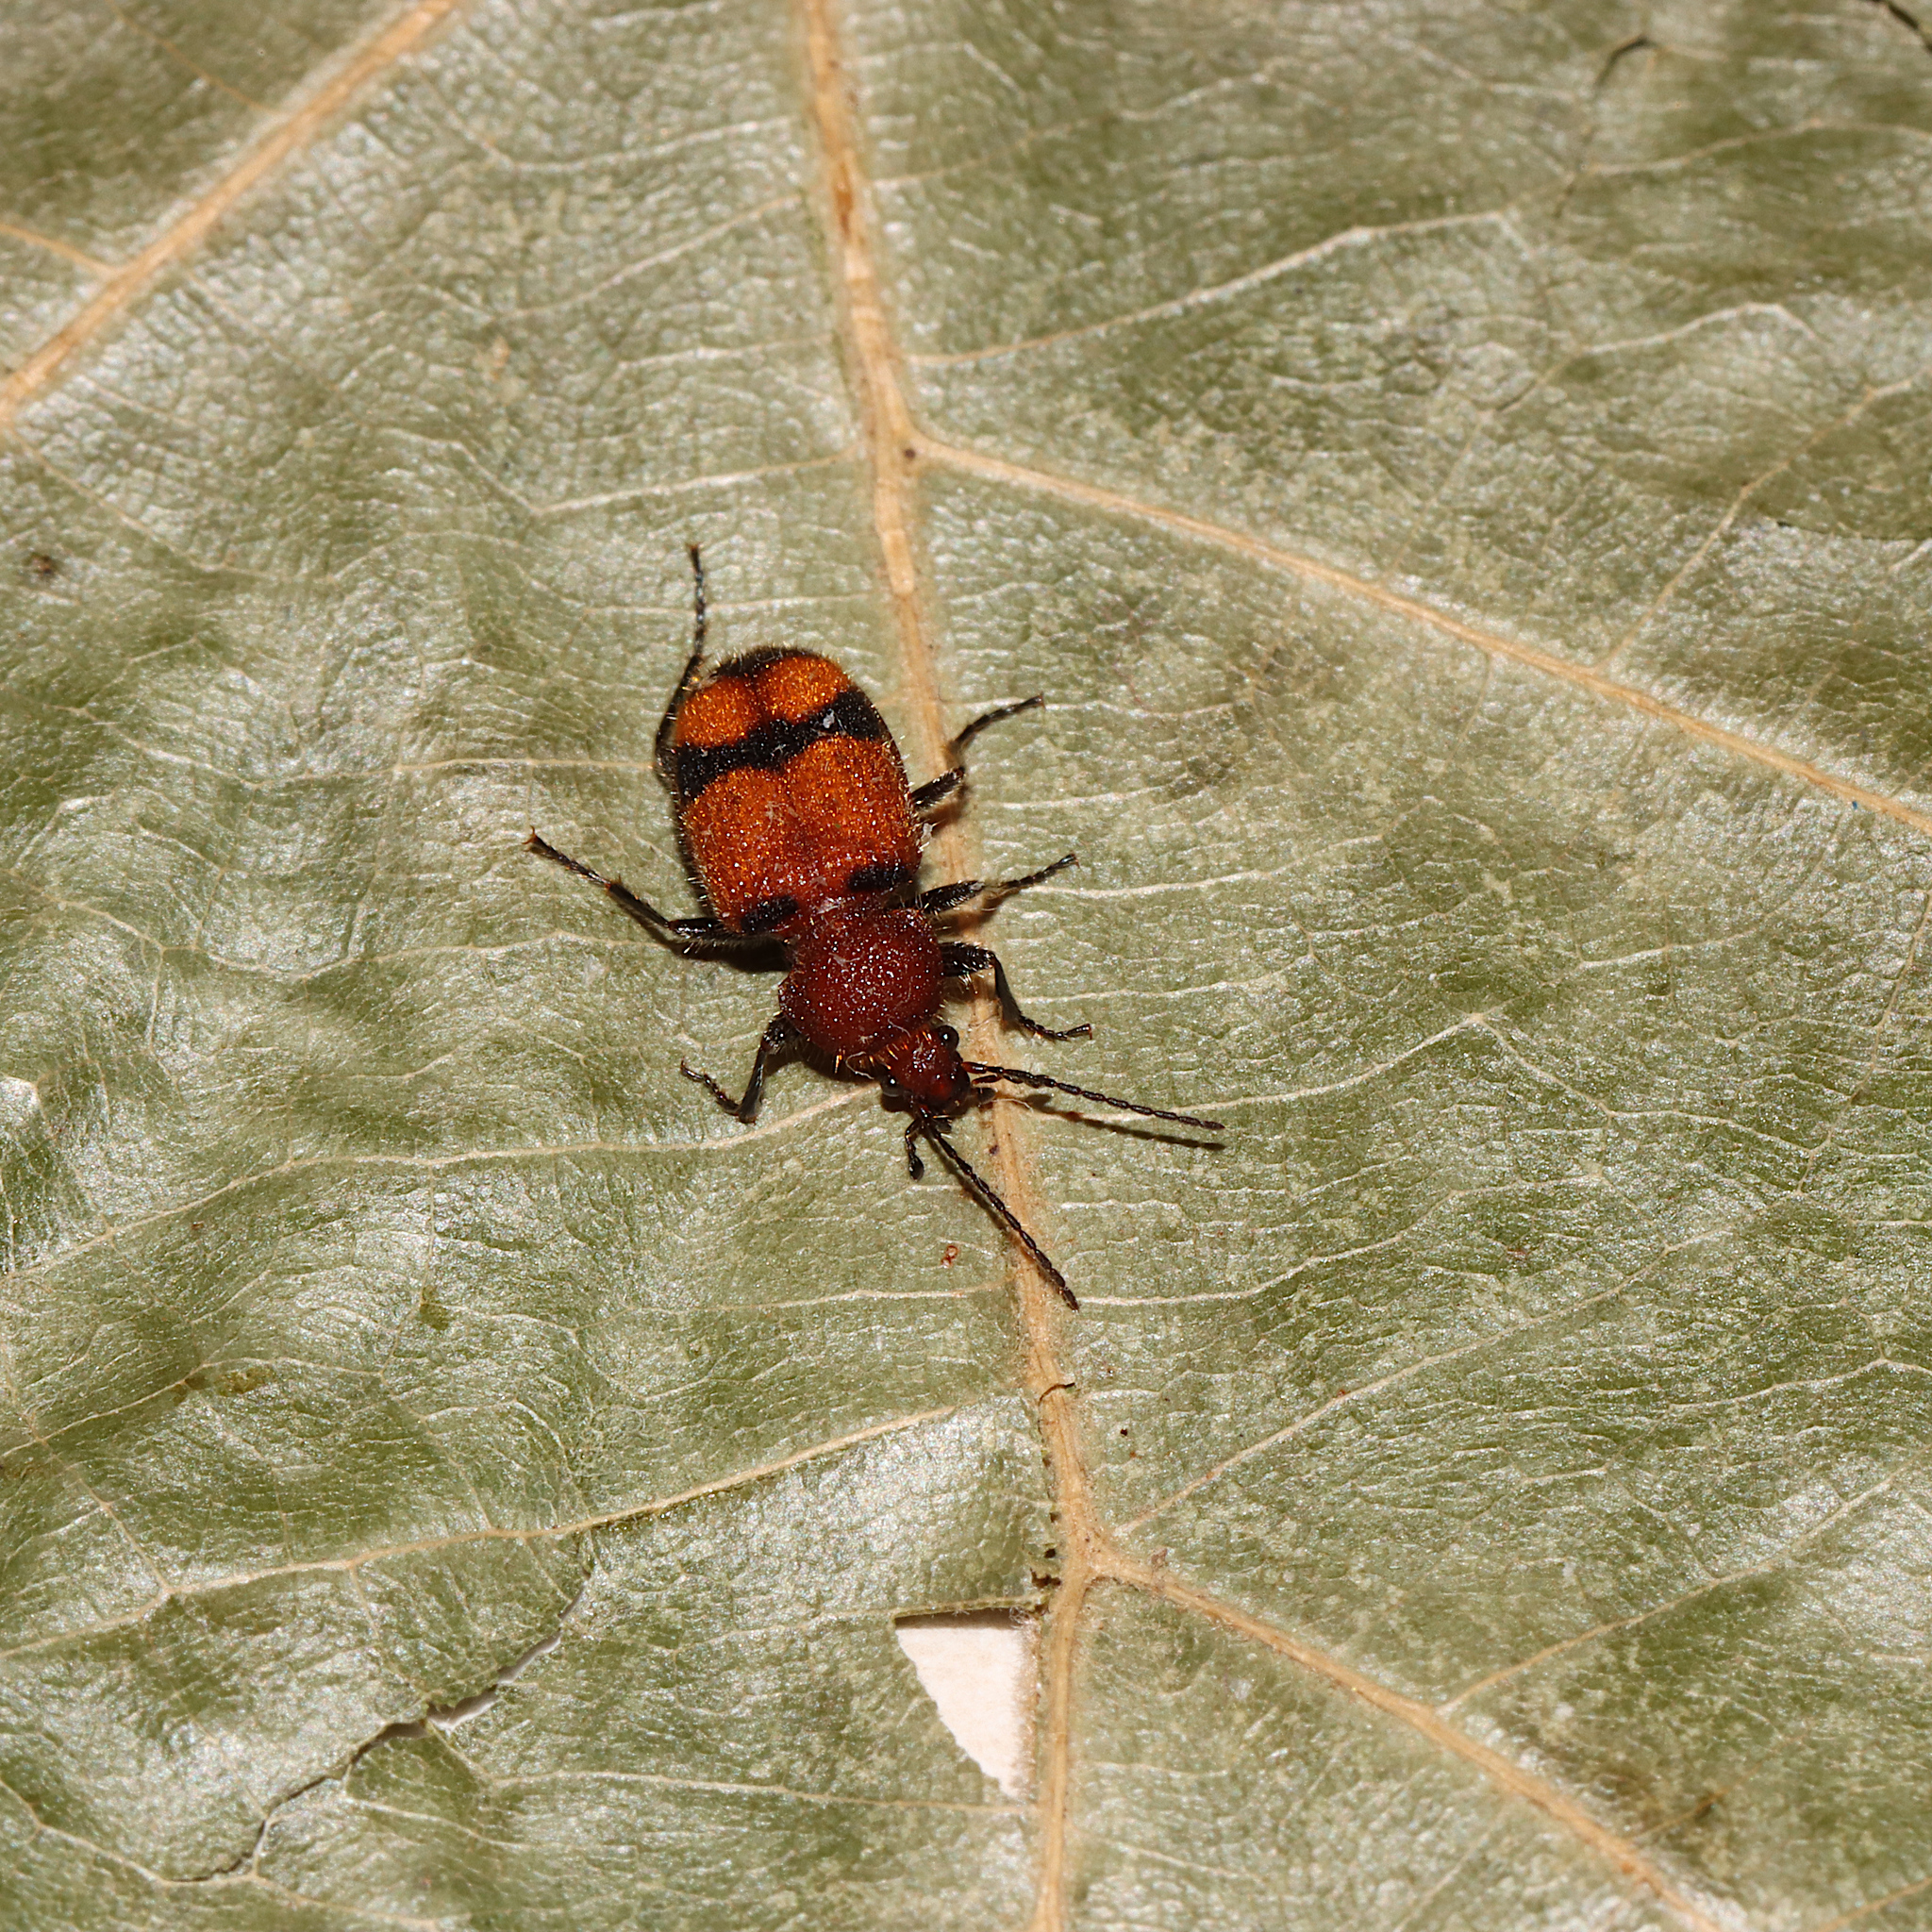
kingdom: Animalia
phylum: Arthropoda
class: Insecta
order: Coleoptera
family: Carabidae
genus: Panagaeus
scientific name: Panagaeus fasciatus
